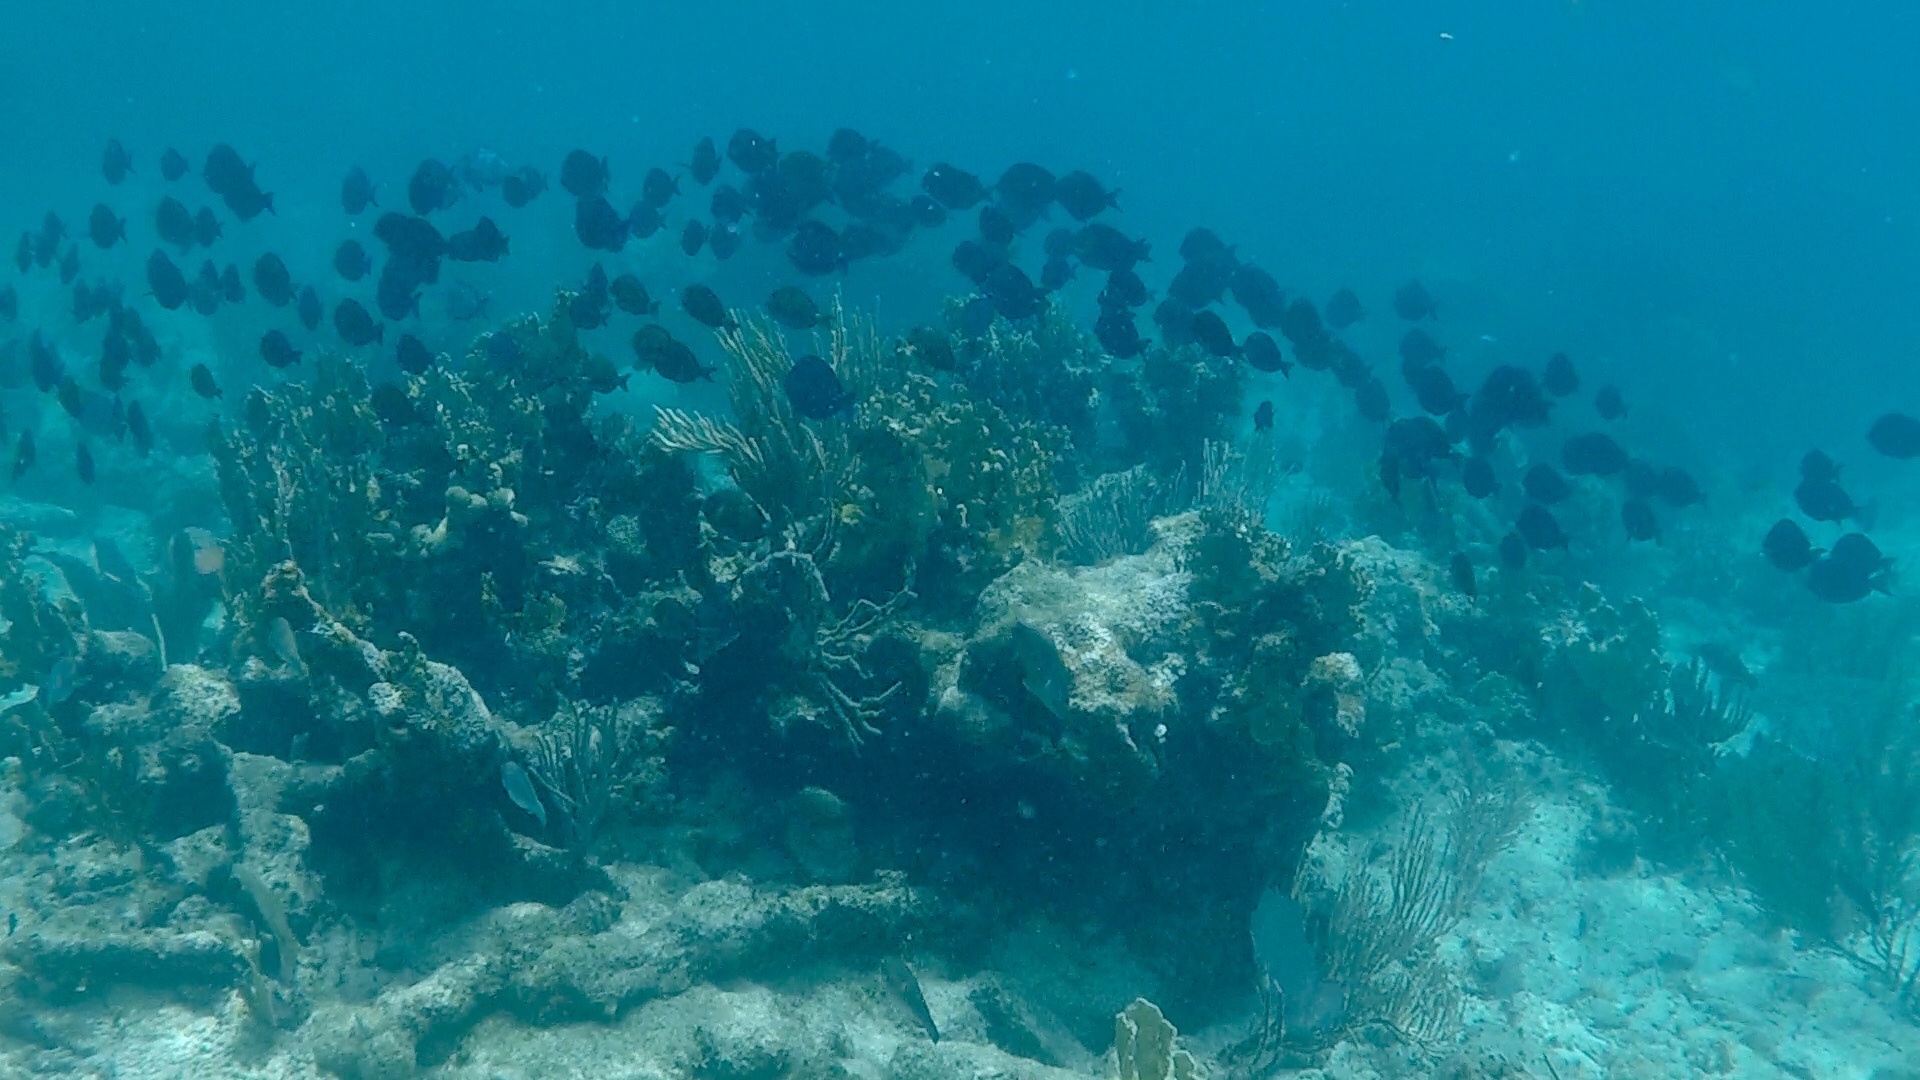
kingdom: Animalia
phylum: Chordata
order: Perciformes
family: Acanthuridae
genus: Acanthurus
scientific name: Acanthurus coeruleus
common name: Blue tang
